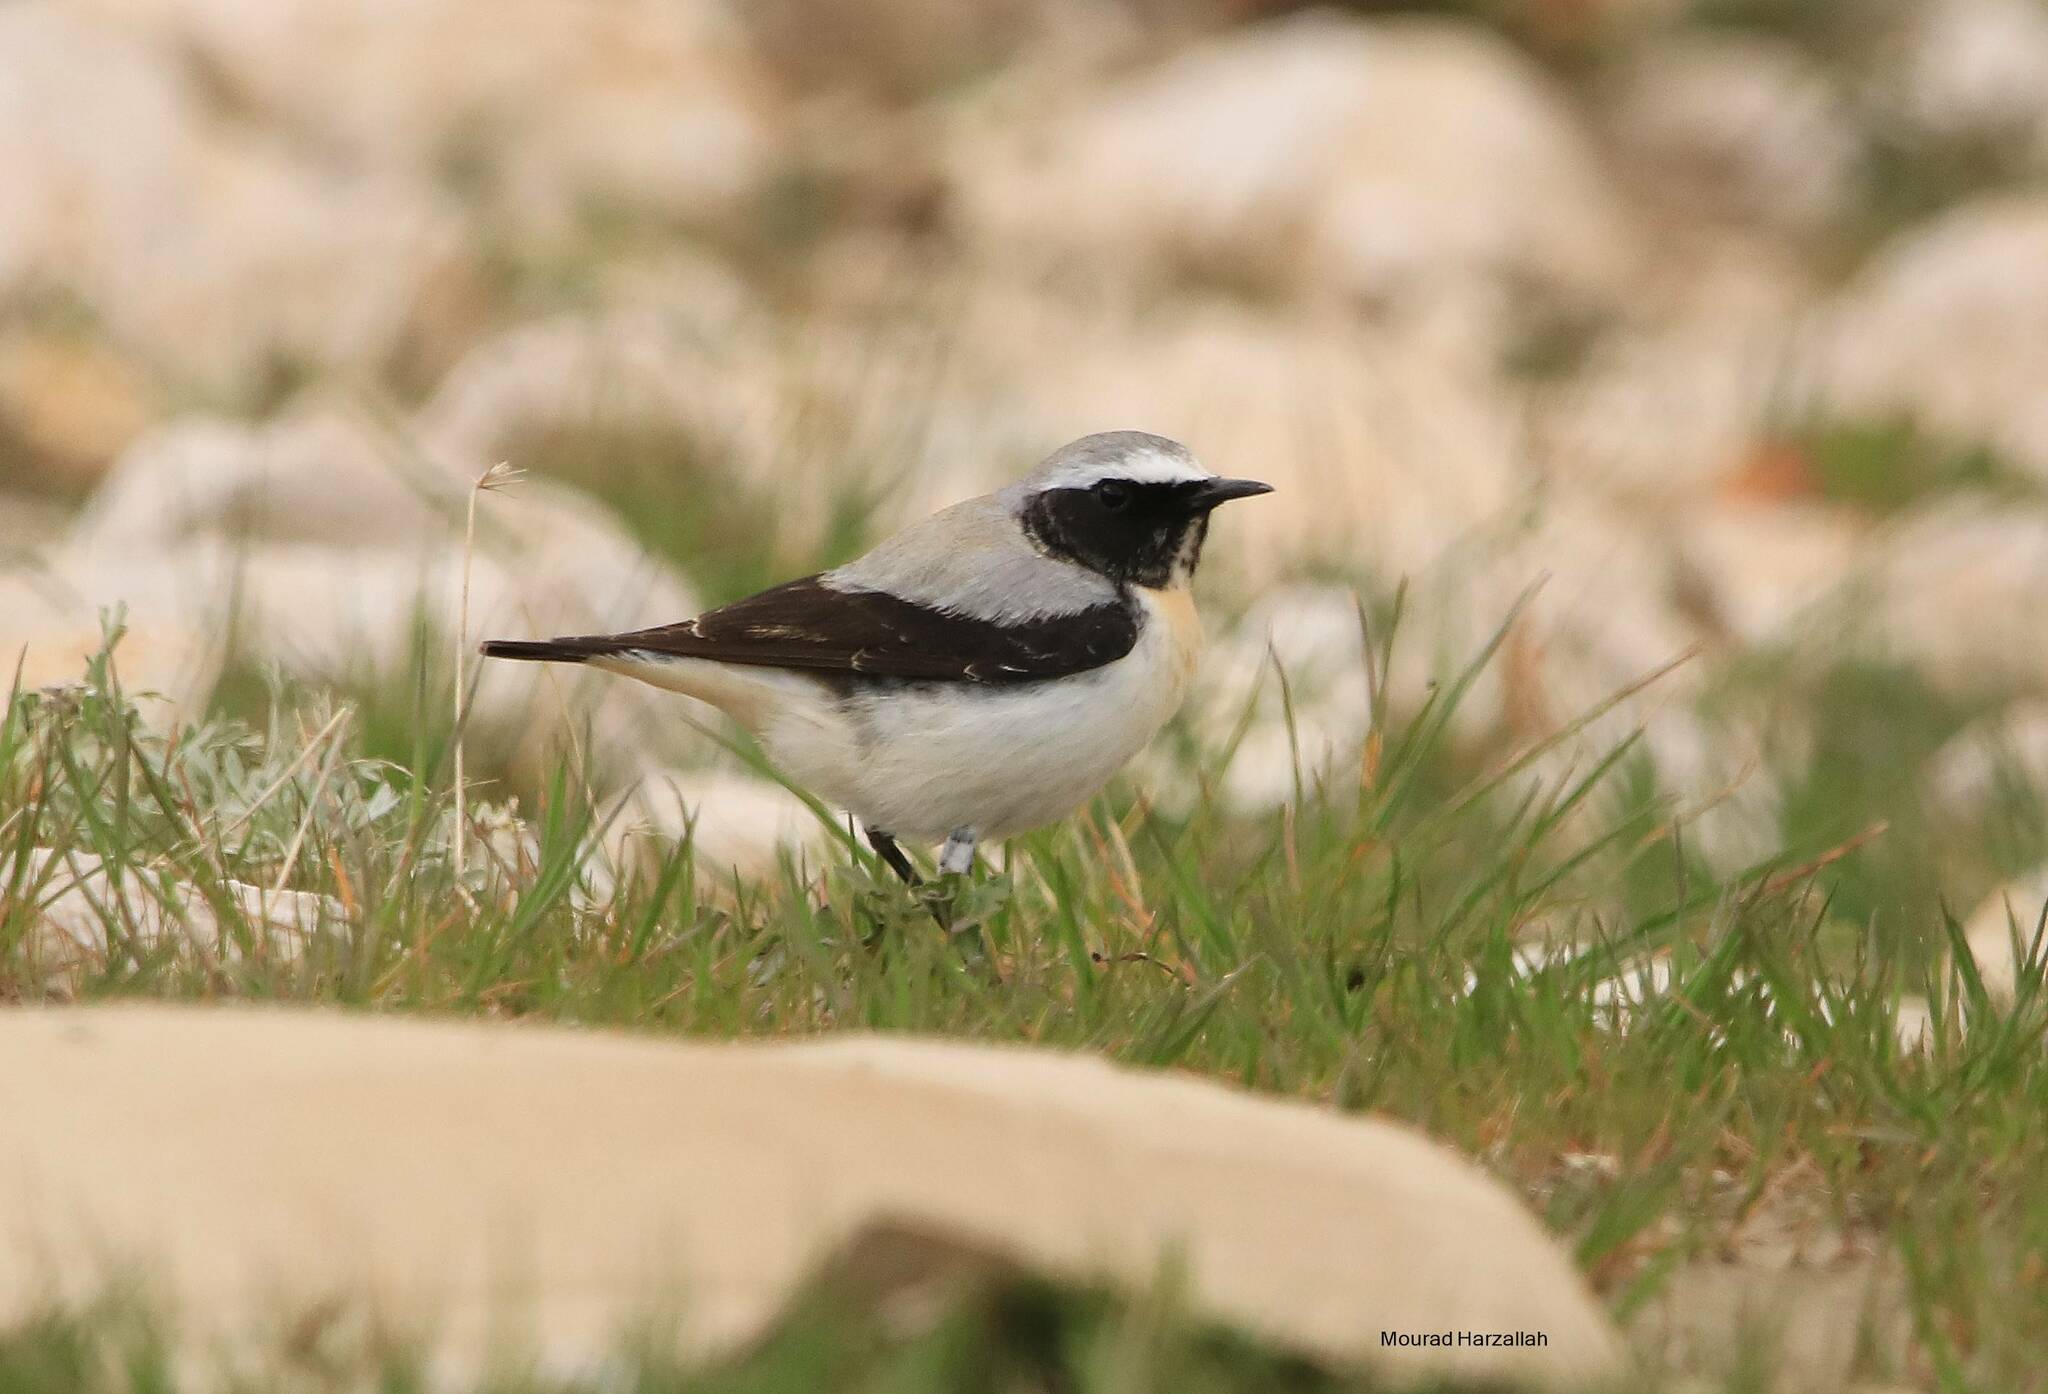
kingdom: Animalia
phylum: Chordata
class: Aves
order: Passeriformes
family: Muscicapidae
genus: Oenanthe
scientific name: Oenanthe oenanthe
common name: Northern wheatear
